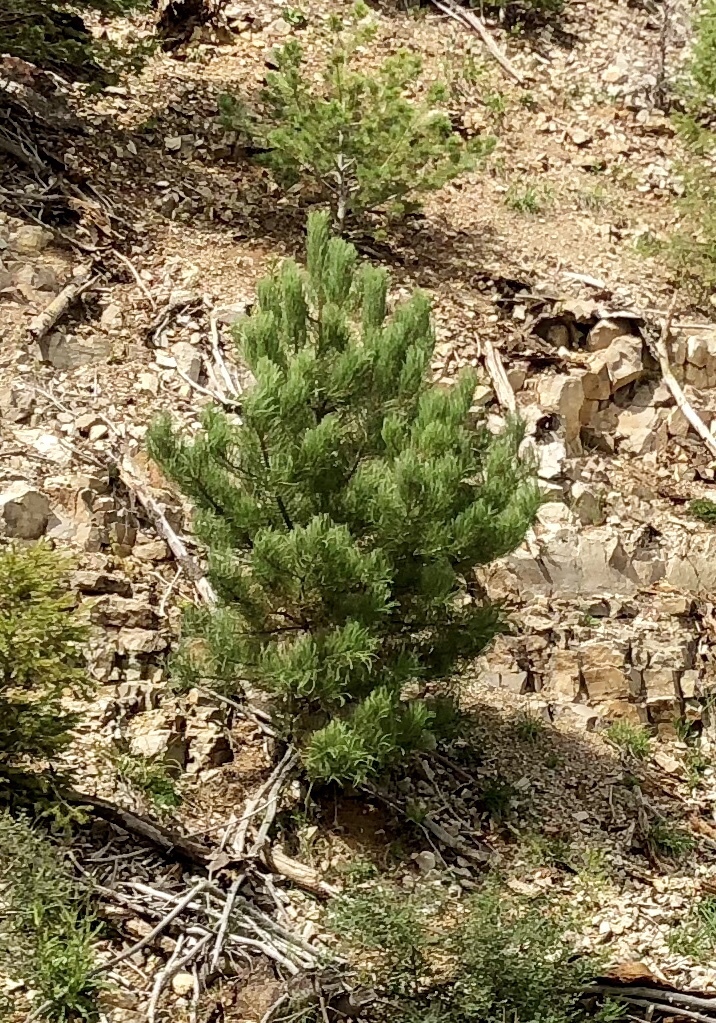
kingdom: Plantae
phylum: Tracheophyta
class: Pinopsida
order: Pinales
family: Pinaceae
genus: Pinus
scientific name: Pinus ponderosa
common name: Western yellow-pine
